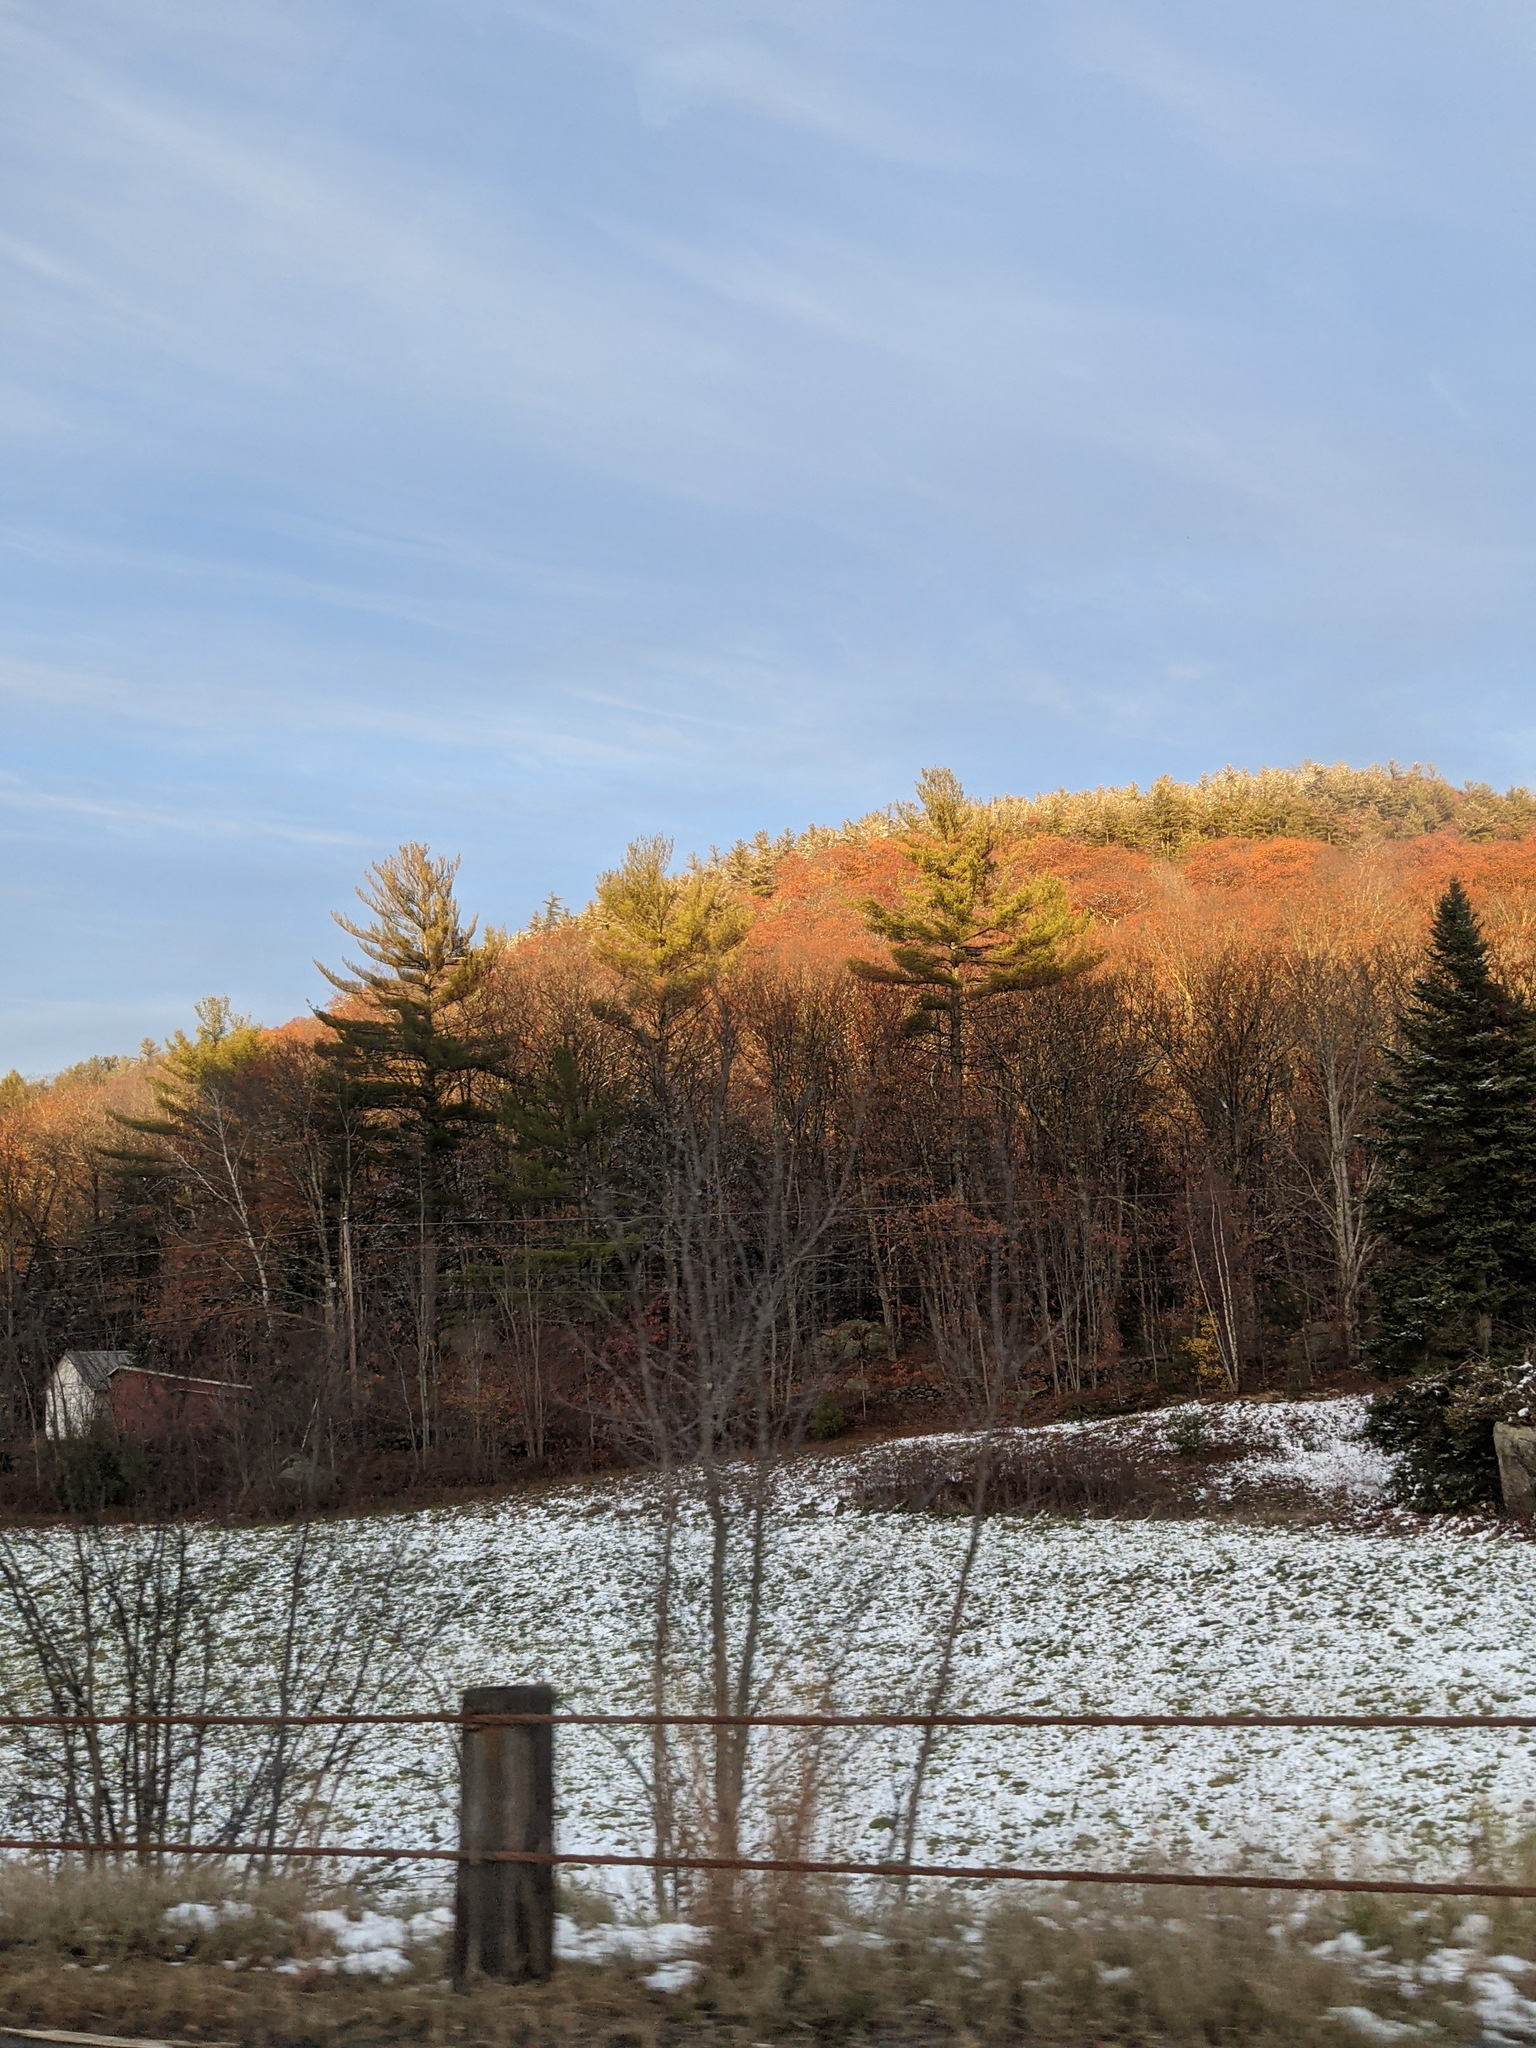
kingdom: Plantae
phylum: Tracheophyta
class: Pinopsida
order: Pinales
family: Pinaceae
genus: Pinus
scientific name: Pinus strobus
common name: Weymouth pine
